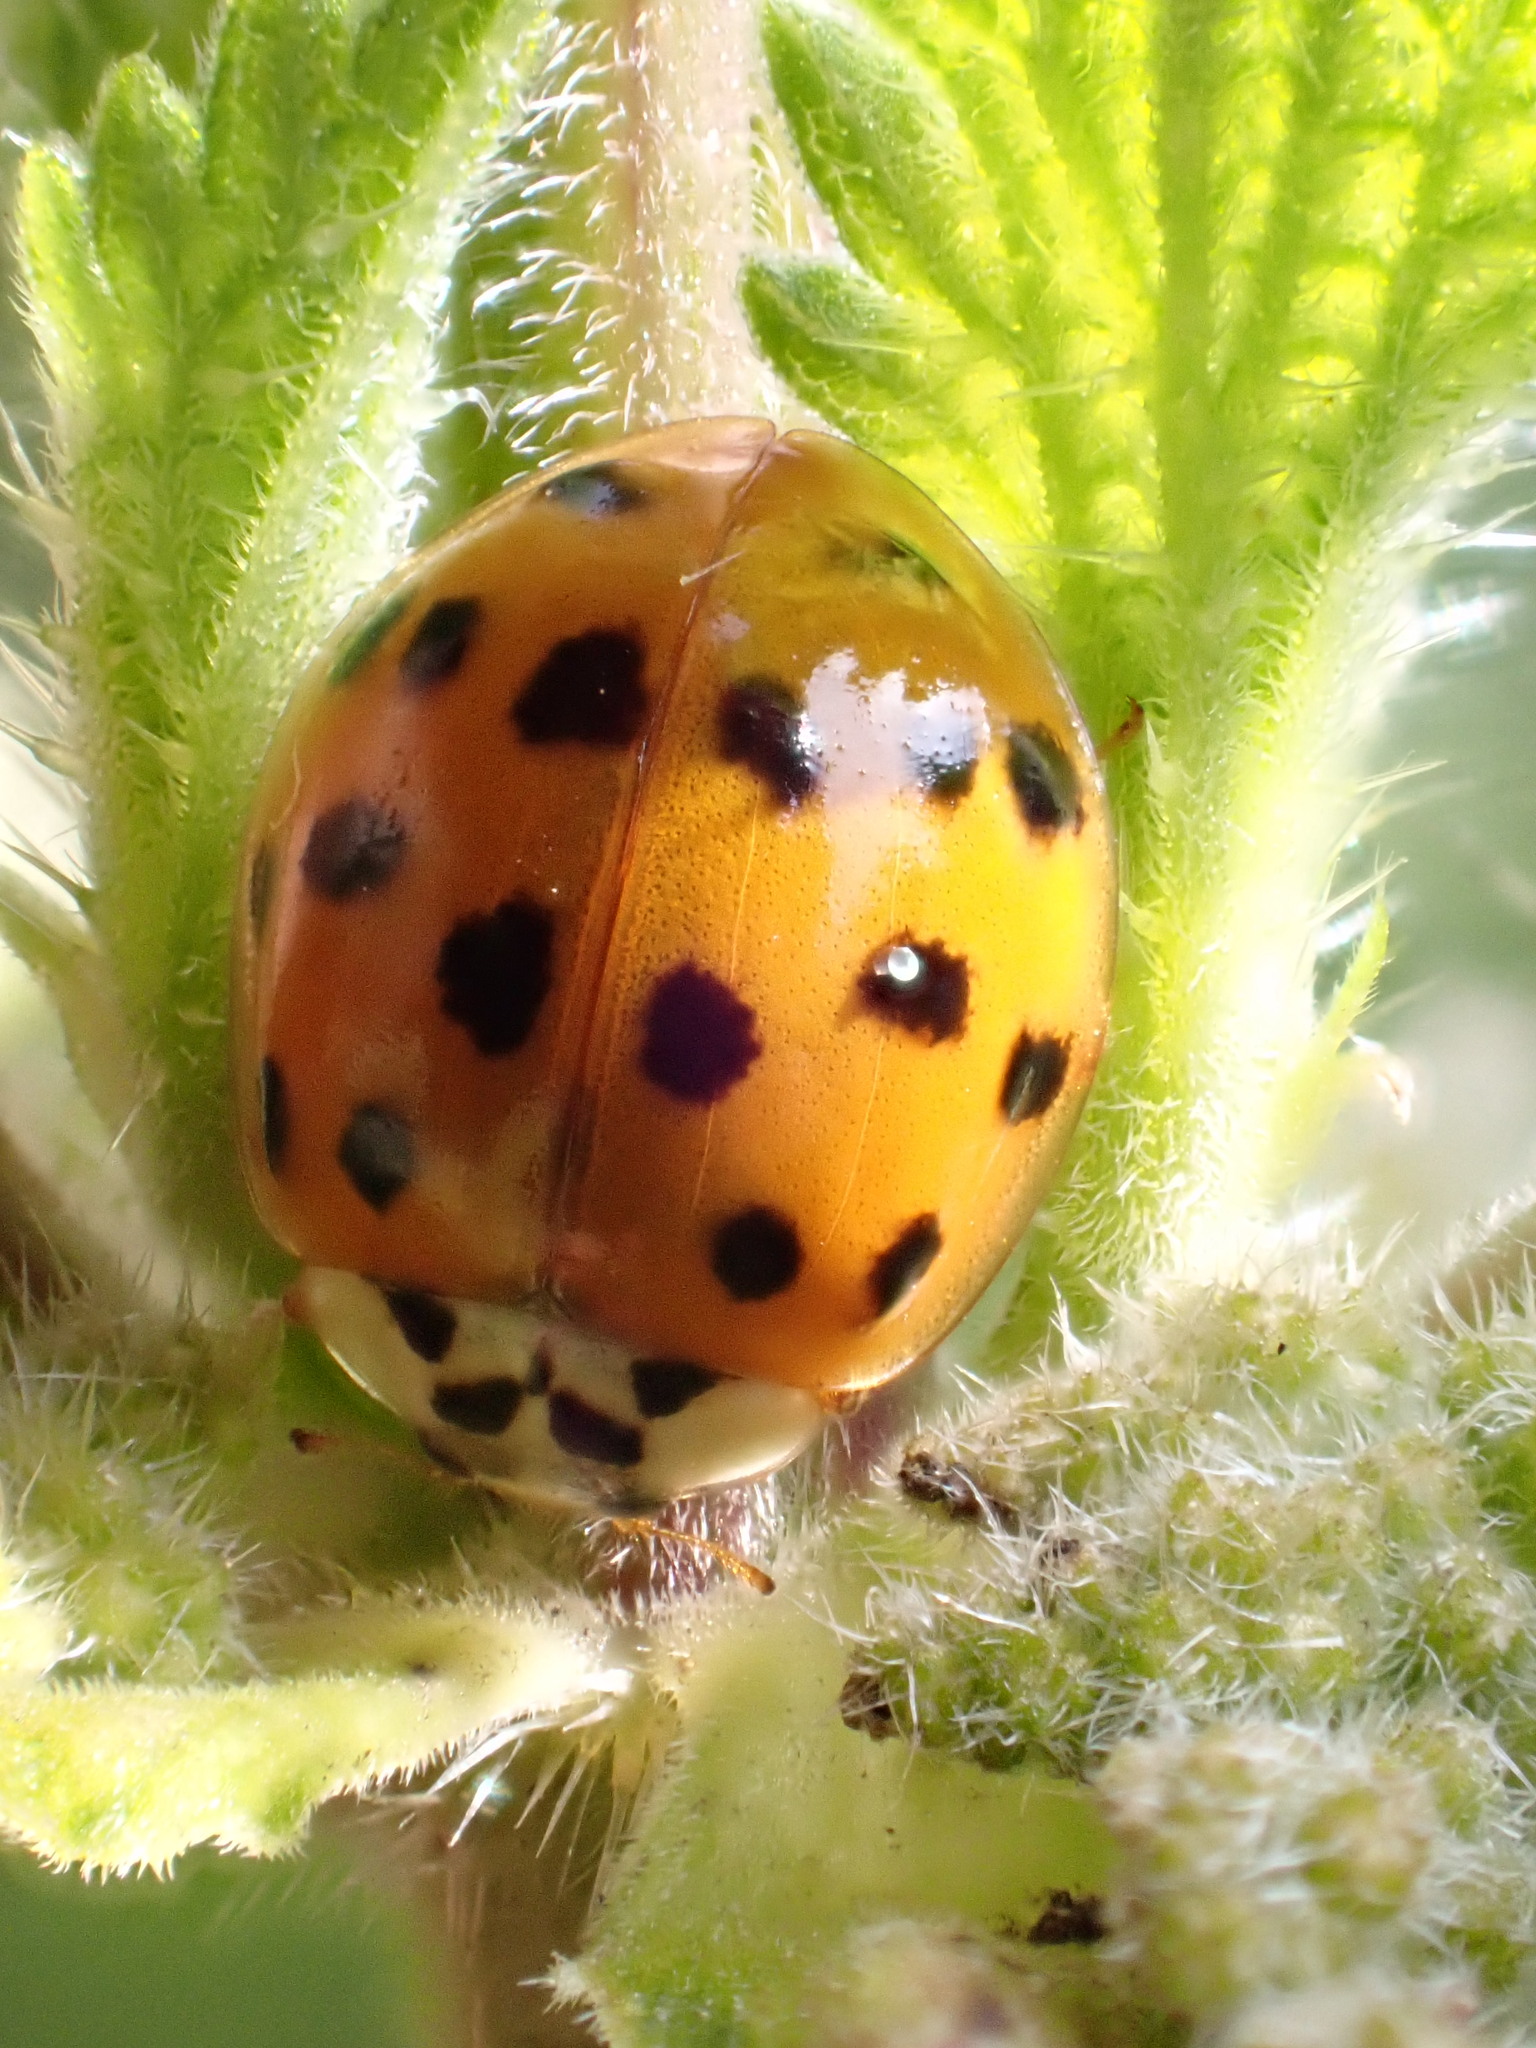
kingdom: Animalia
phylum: Arthropoda
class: Insecta
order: Coleoptera
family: Coccinellidae
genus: Harmonia
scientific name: Harmonia axyridis
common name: Harlequin ladybird
